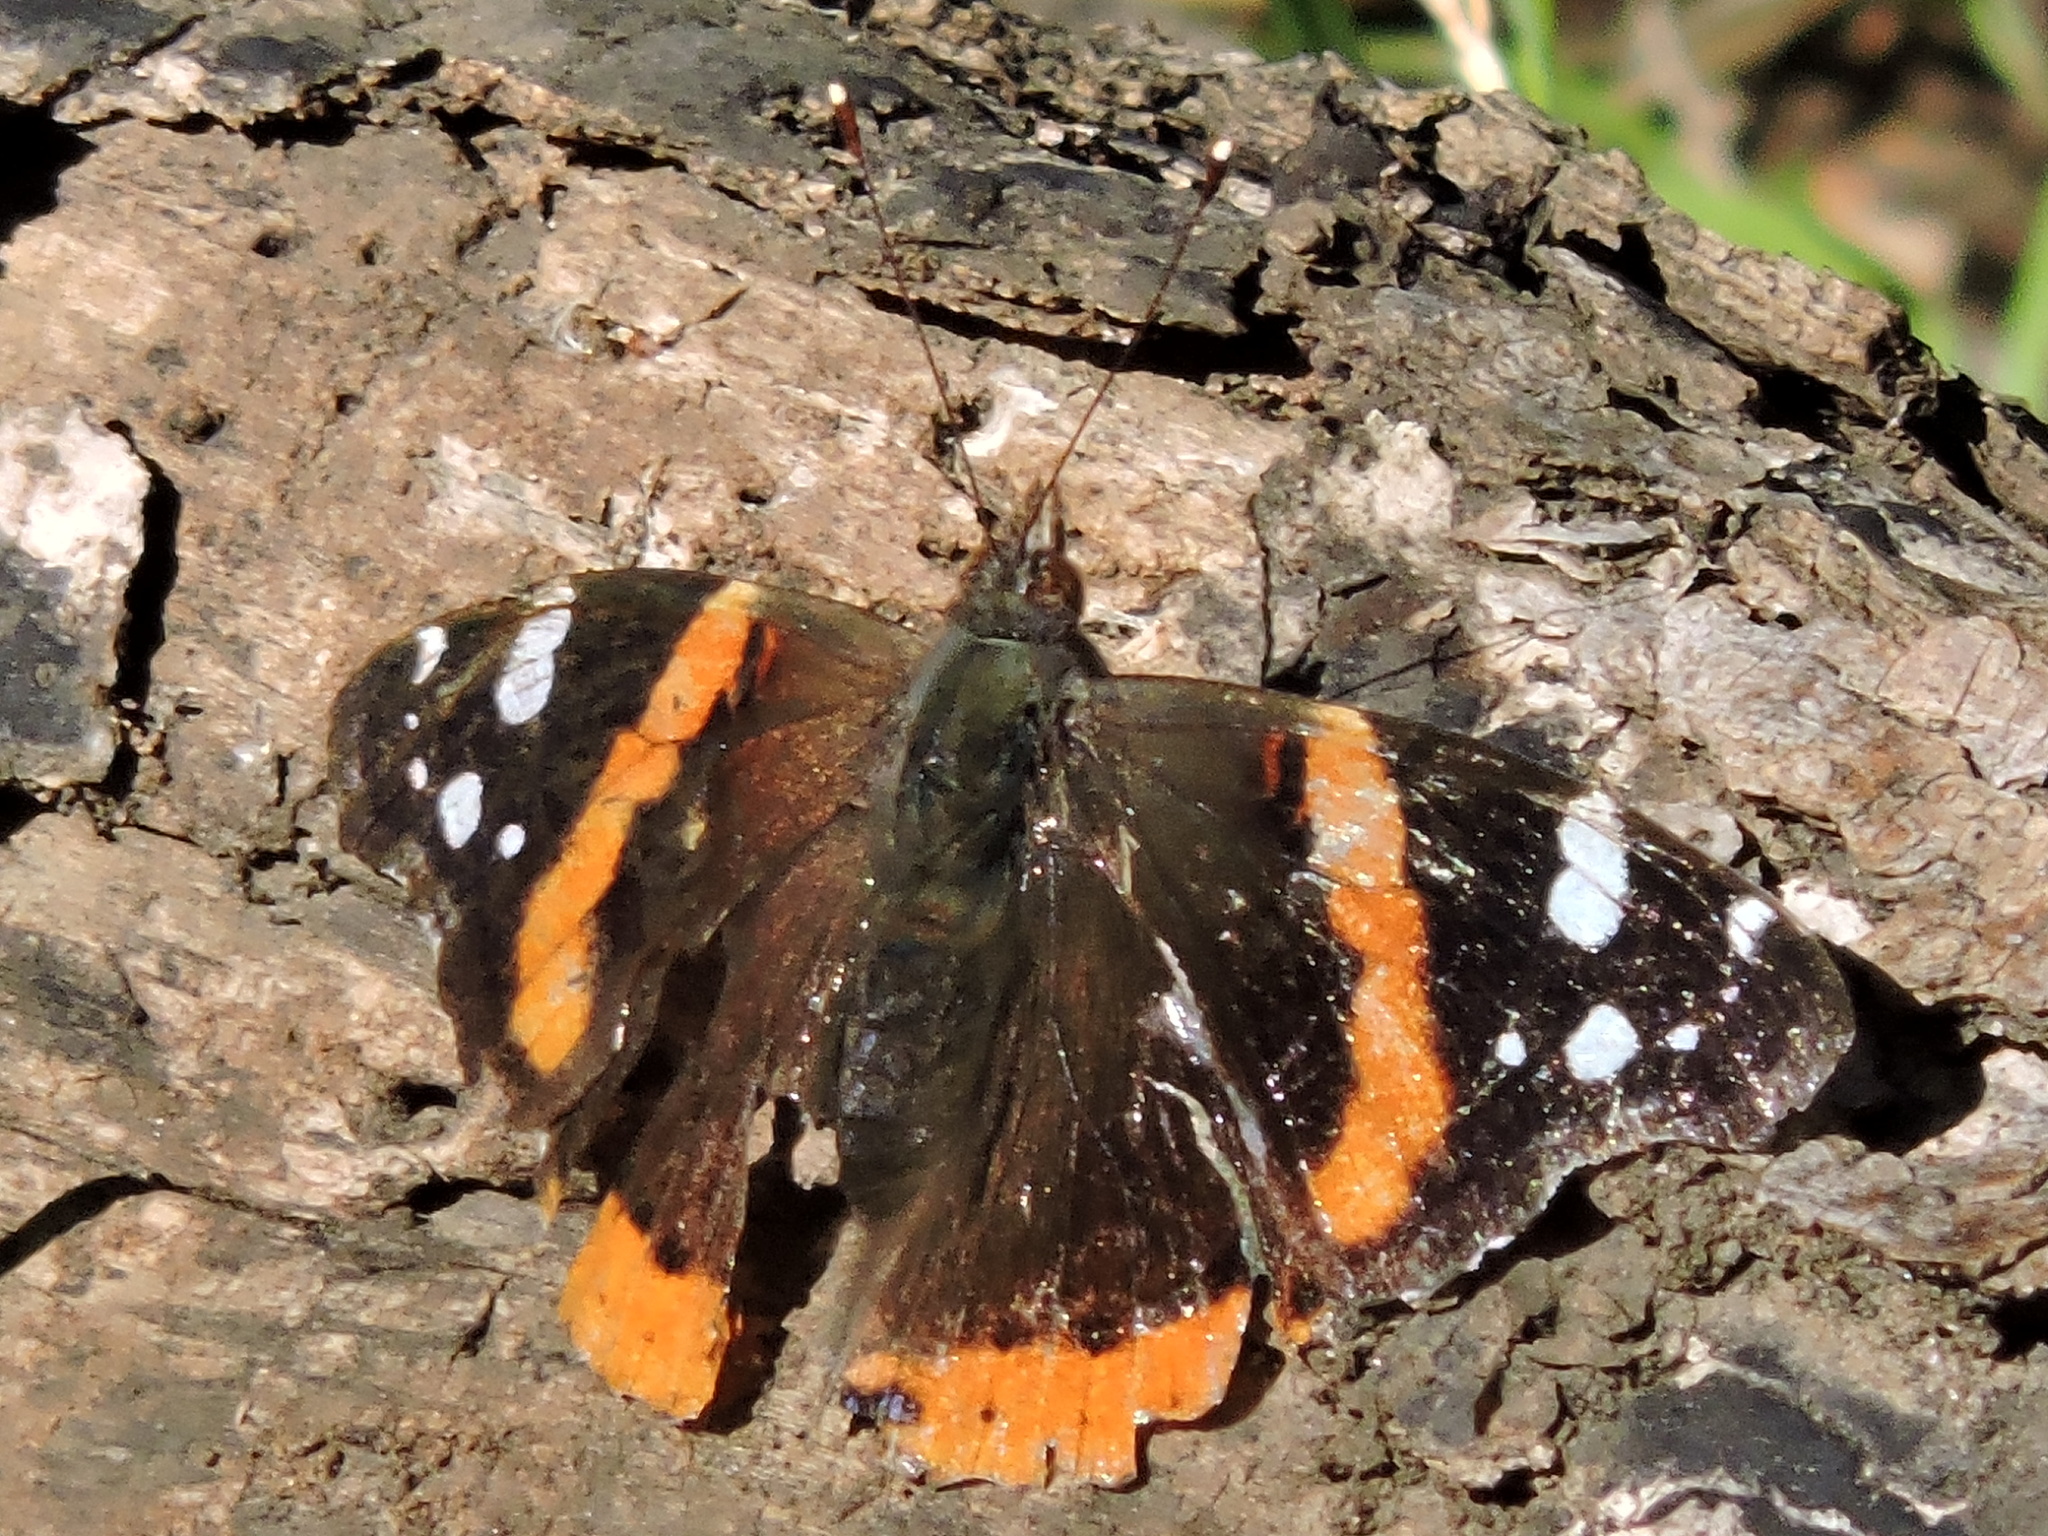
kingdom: Animalia
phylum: Arthropoda
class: Insecta
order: Lepidoptera
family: Nymphalidae
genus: Vanessa
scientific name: Vanessa atalanta
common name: Red admiral
